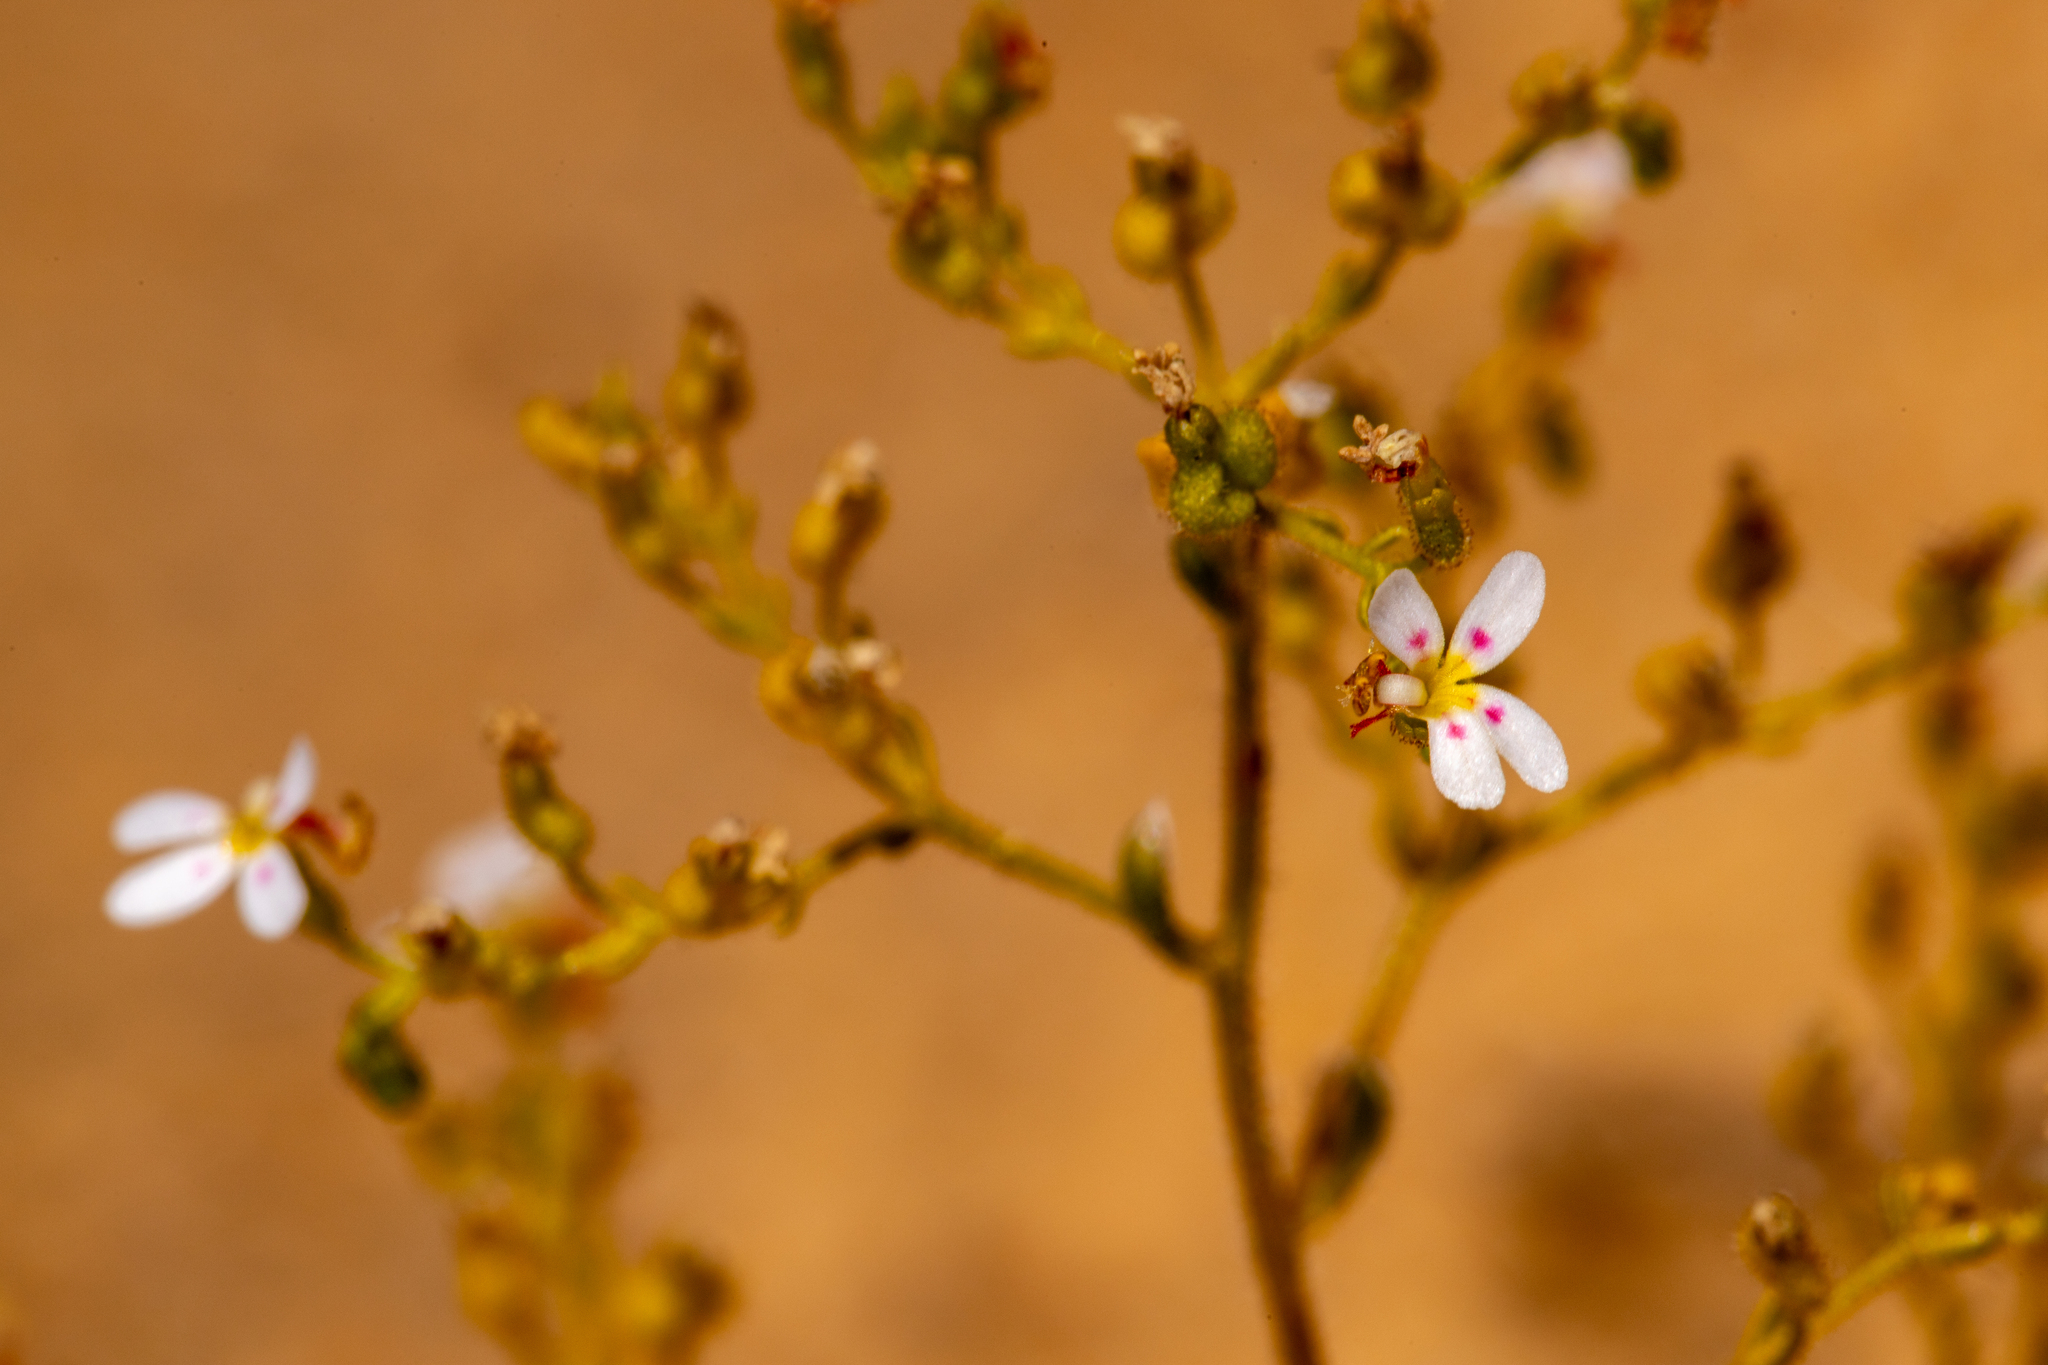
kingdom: Plantae
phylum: Tracheophyta
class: Magnoliopsida
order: Asterales
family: Stylidiaceae
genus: Stylidium
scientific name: Stylidium dispermum
